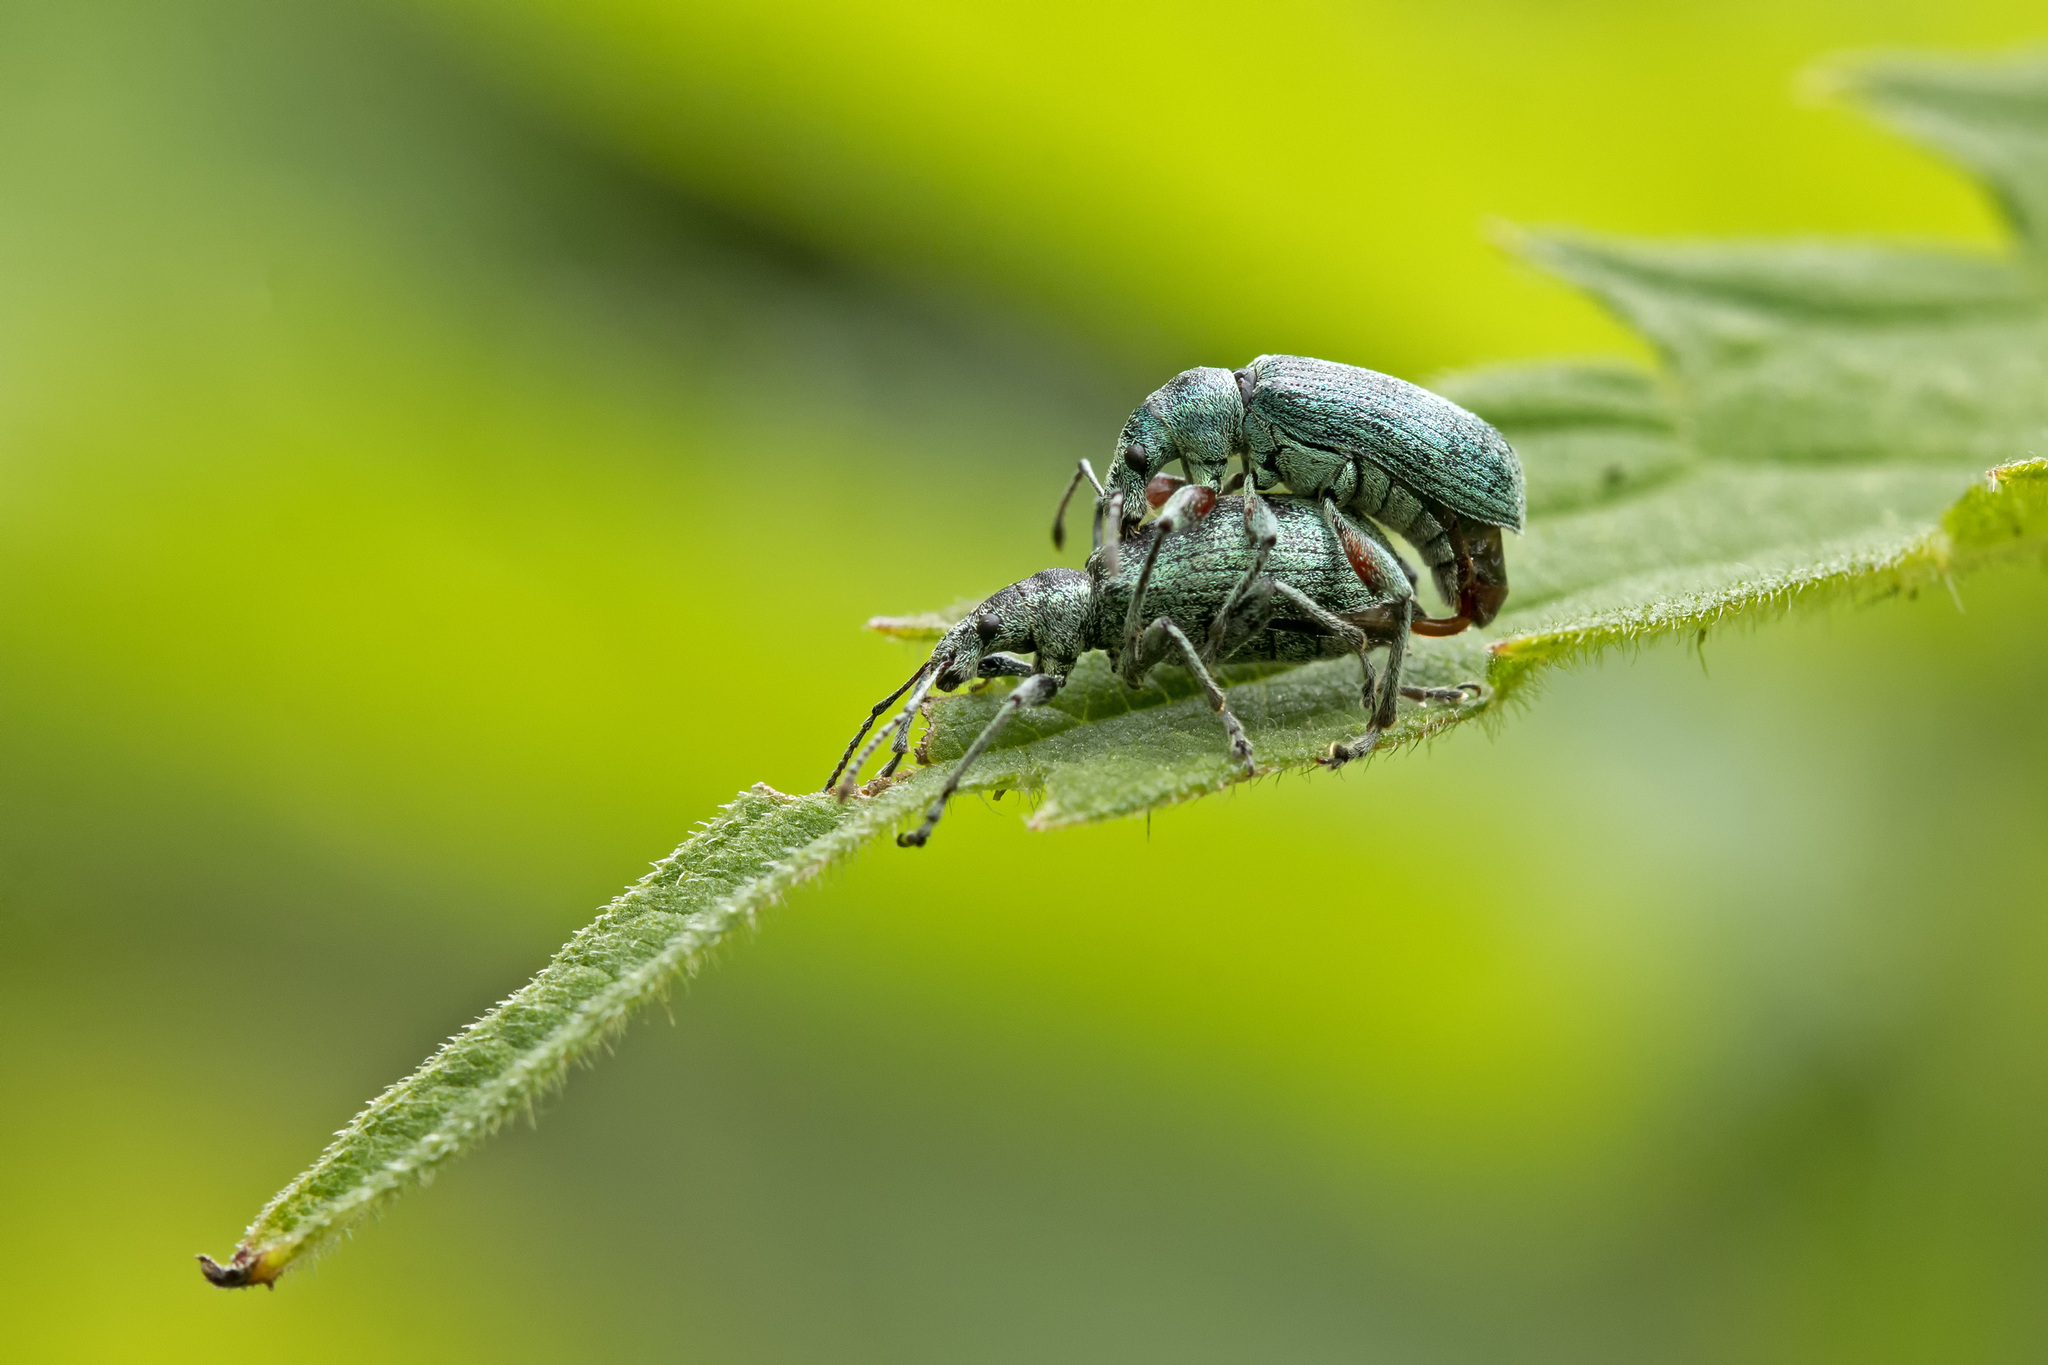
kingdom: Animalia
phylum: Arthropoda
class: Insecta
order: Coleoptera
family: Curculionidae
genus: Phyllobius
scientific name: Phyllobius pomaceus
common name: Green nettle weevil
